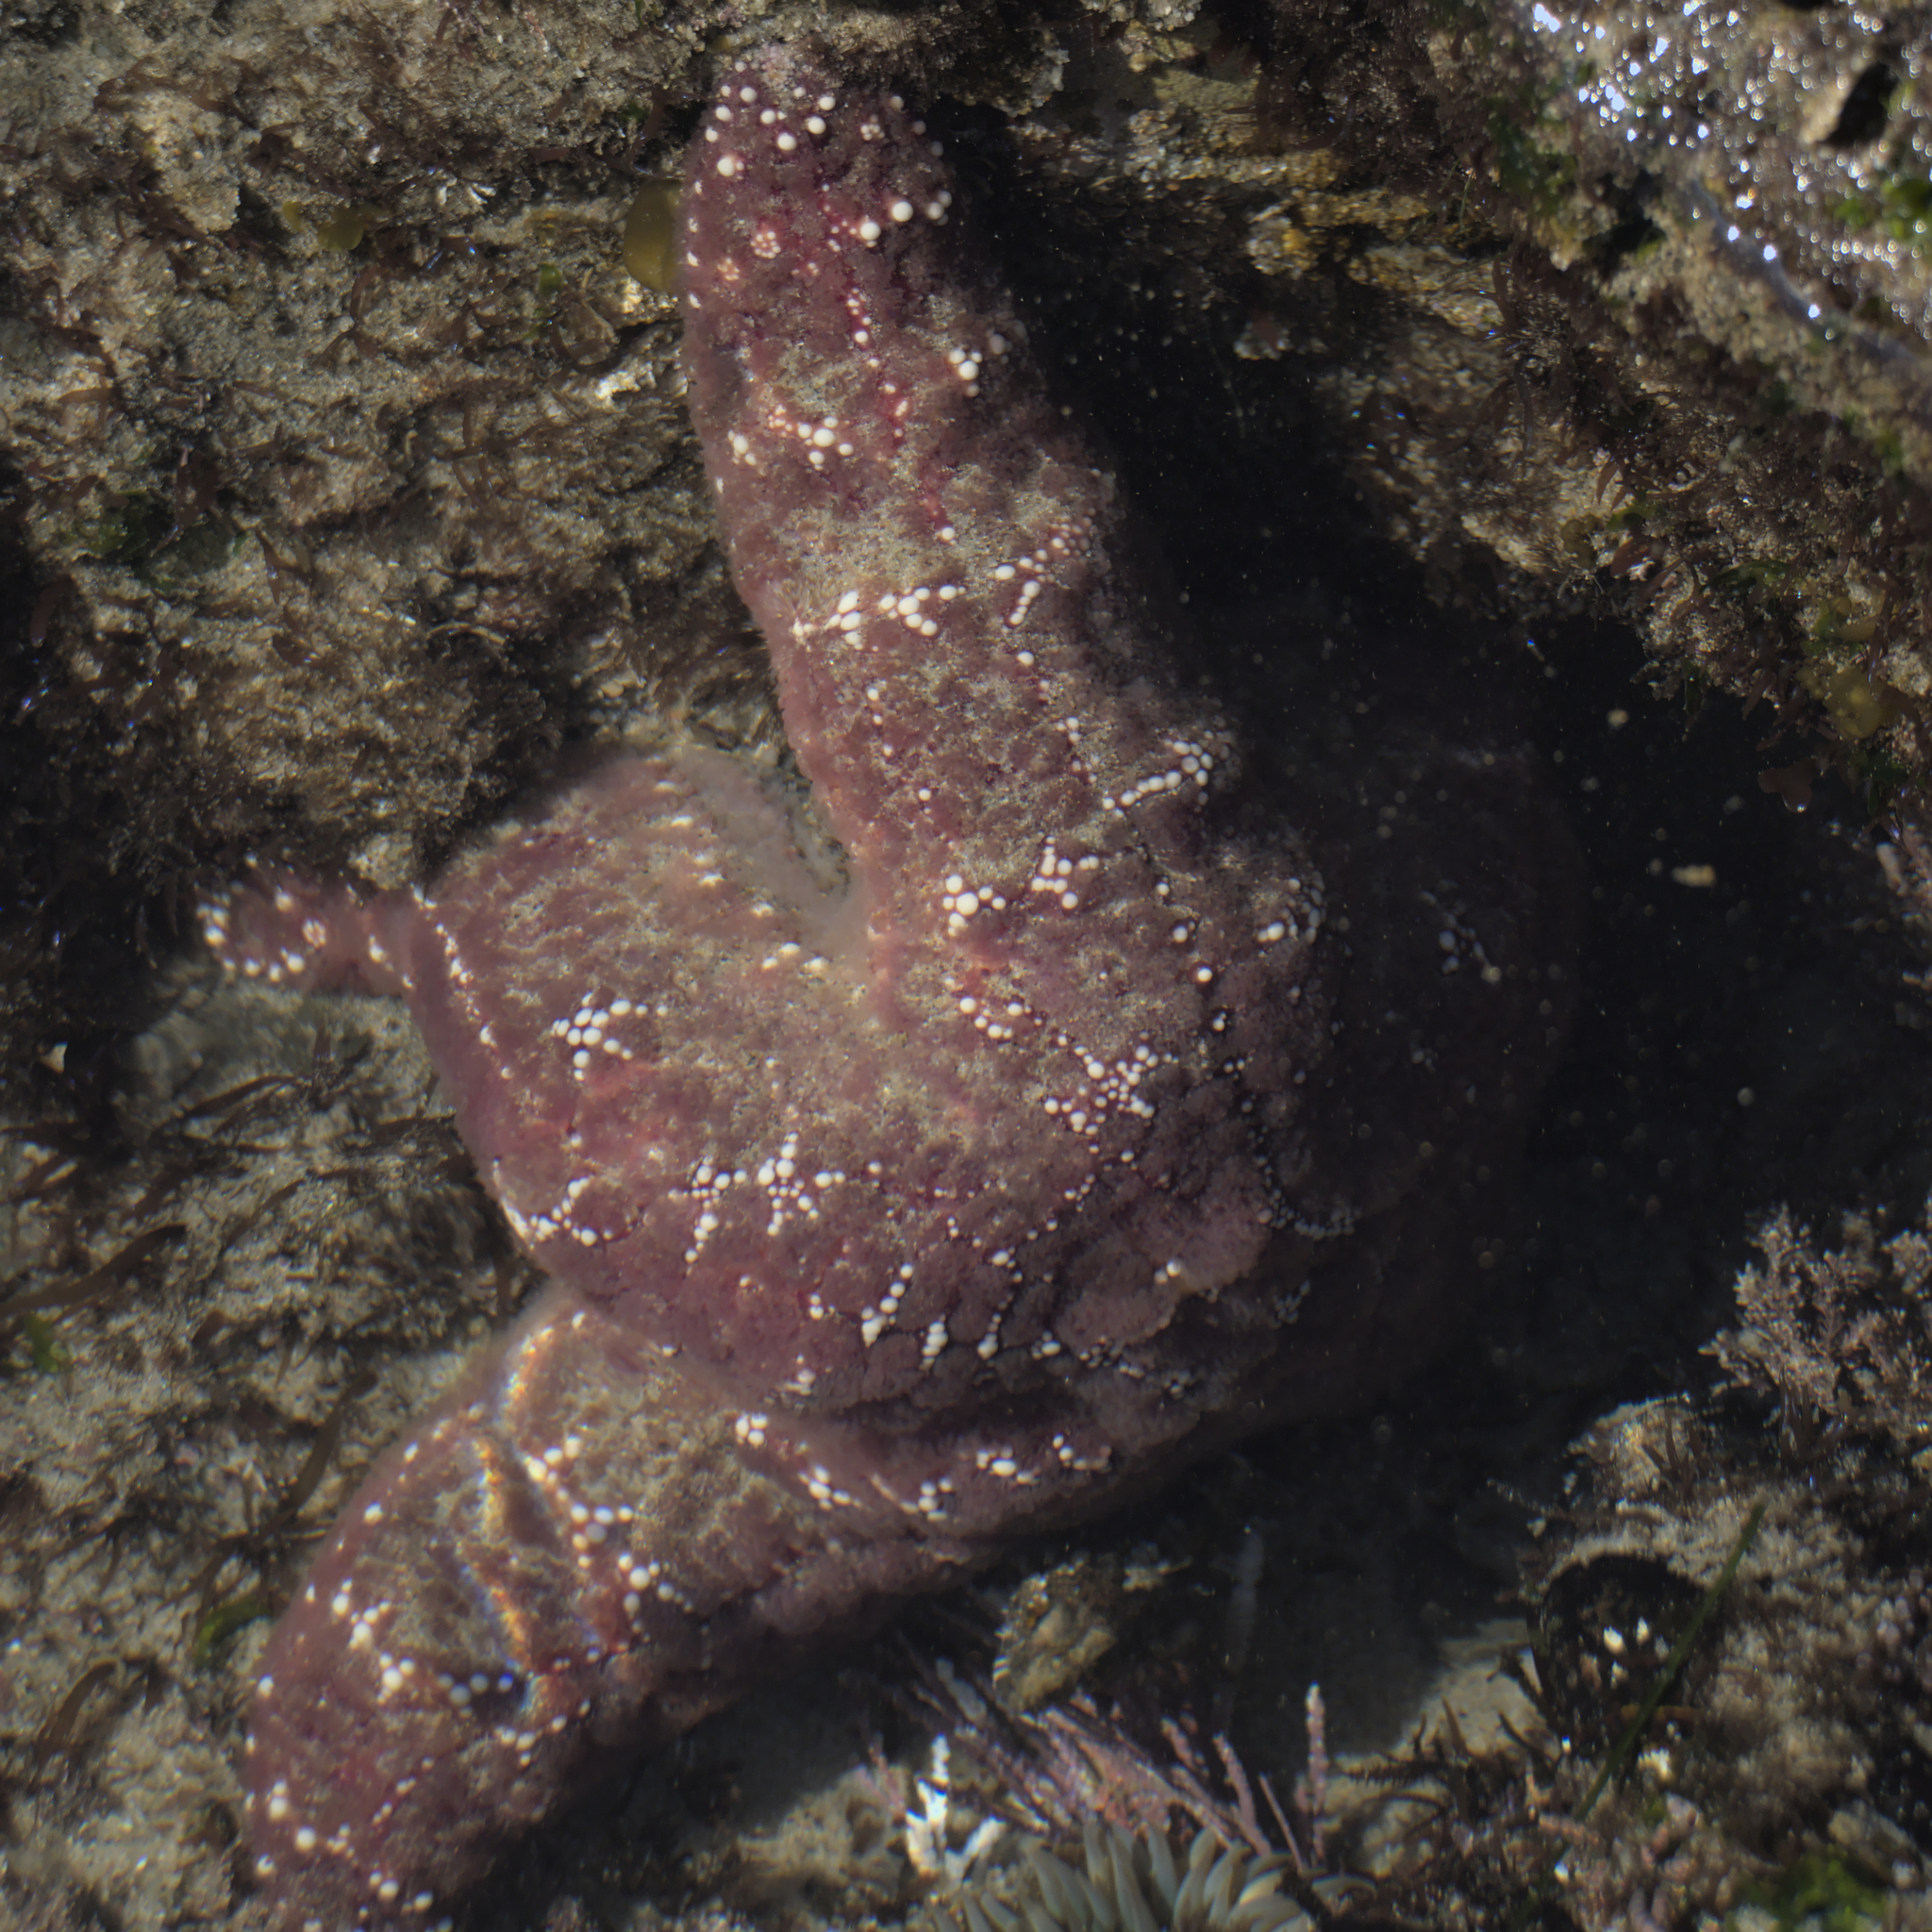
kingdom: Animalia
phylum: Echinodermata
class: Asteroidea
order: Forcipulatida
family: Asteriidae
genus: Pisaster
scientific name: Pisaster ochraceus
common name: Ochre stars
